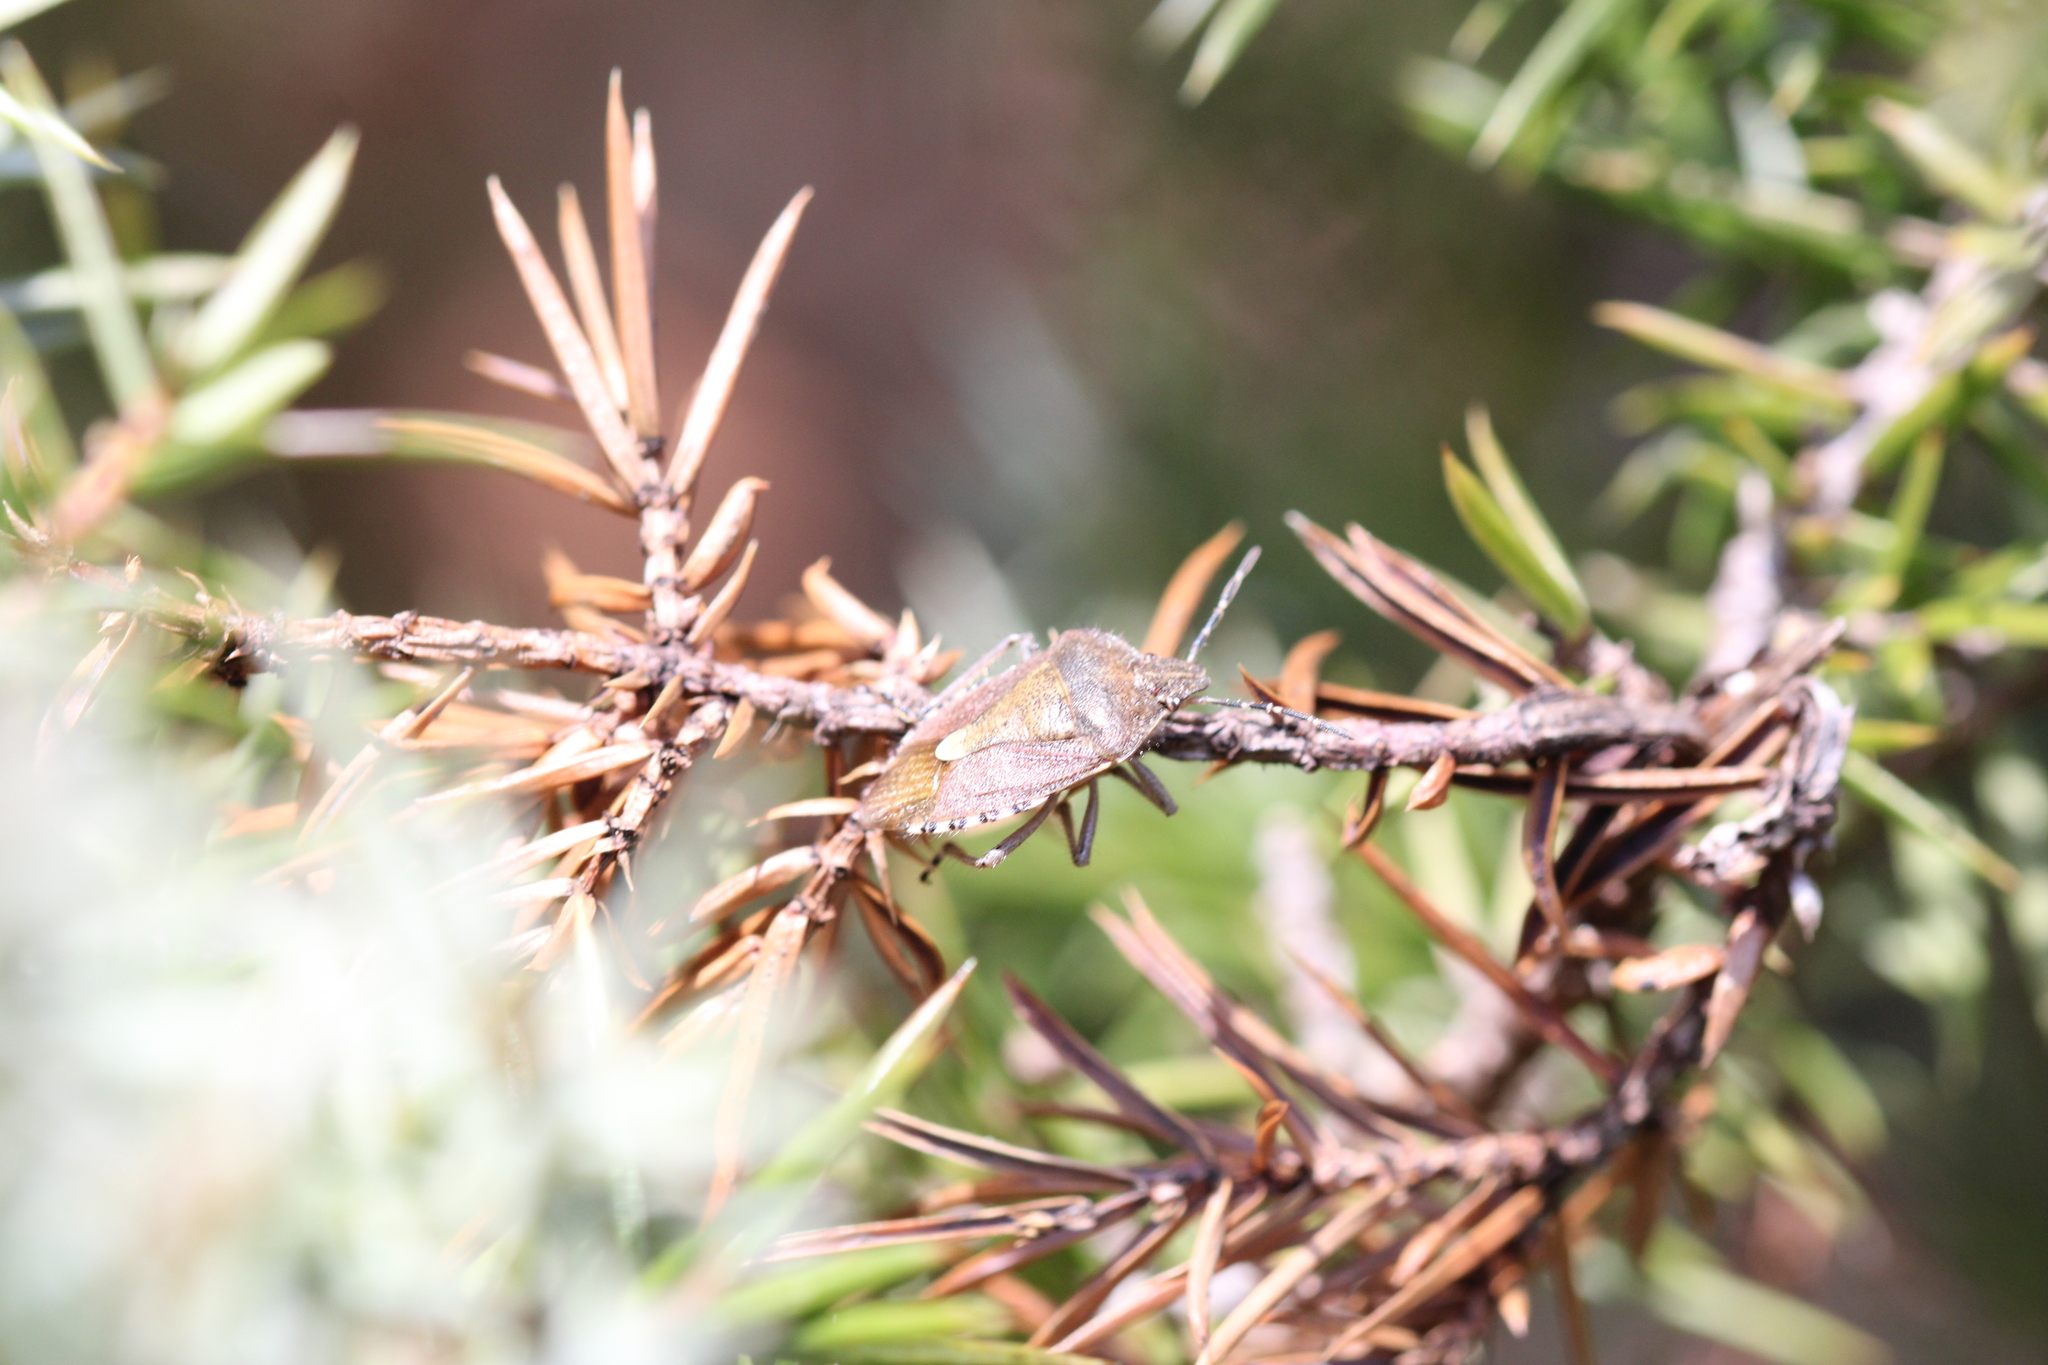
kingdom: Animalia
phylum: Arthropoda
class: Insecta
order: Hemiptera
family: Pentatomidae
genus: Dolycoris
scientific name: Dolycoris baccarum
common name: Sloe bug
